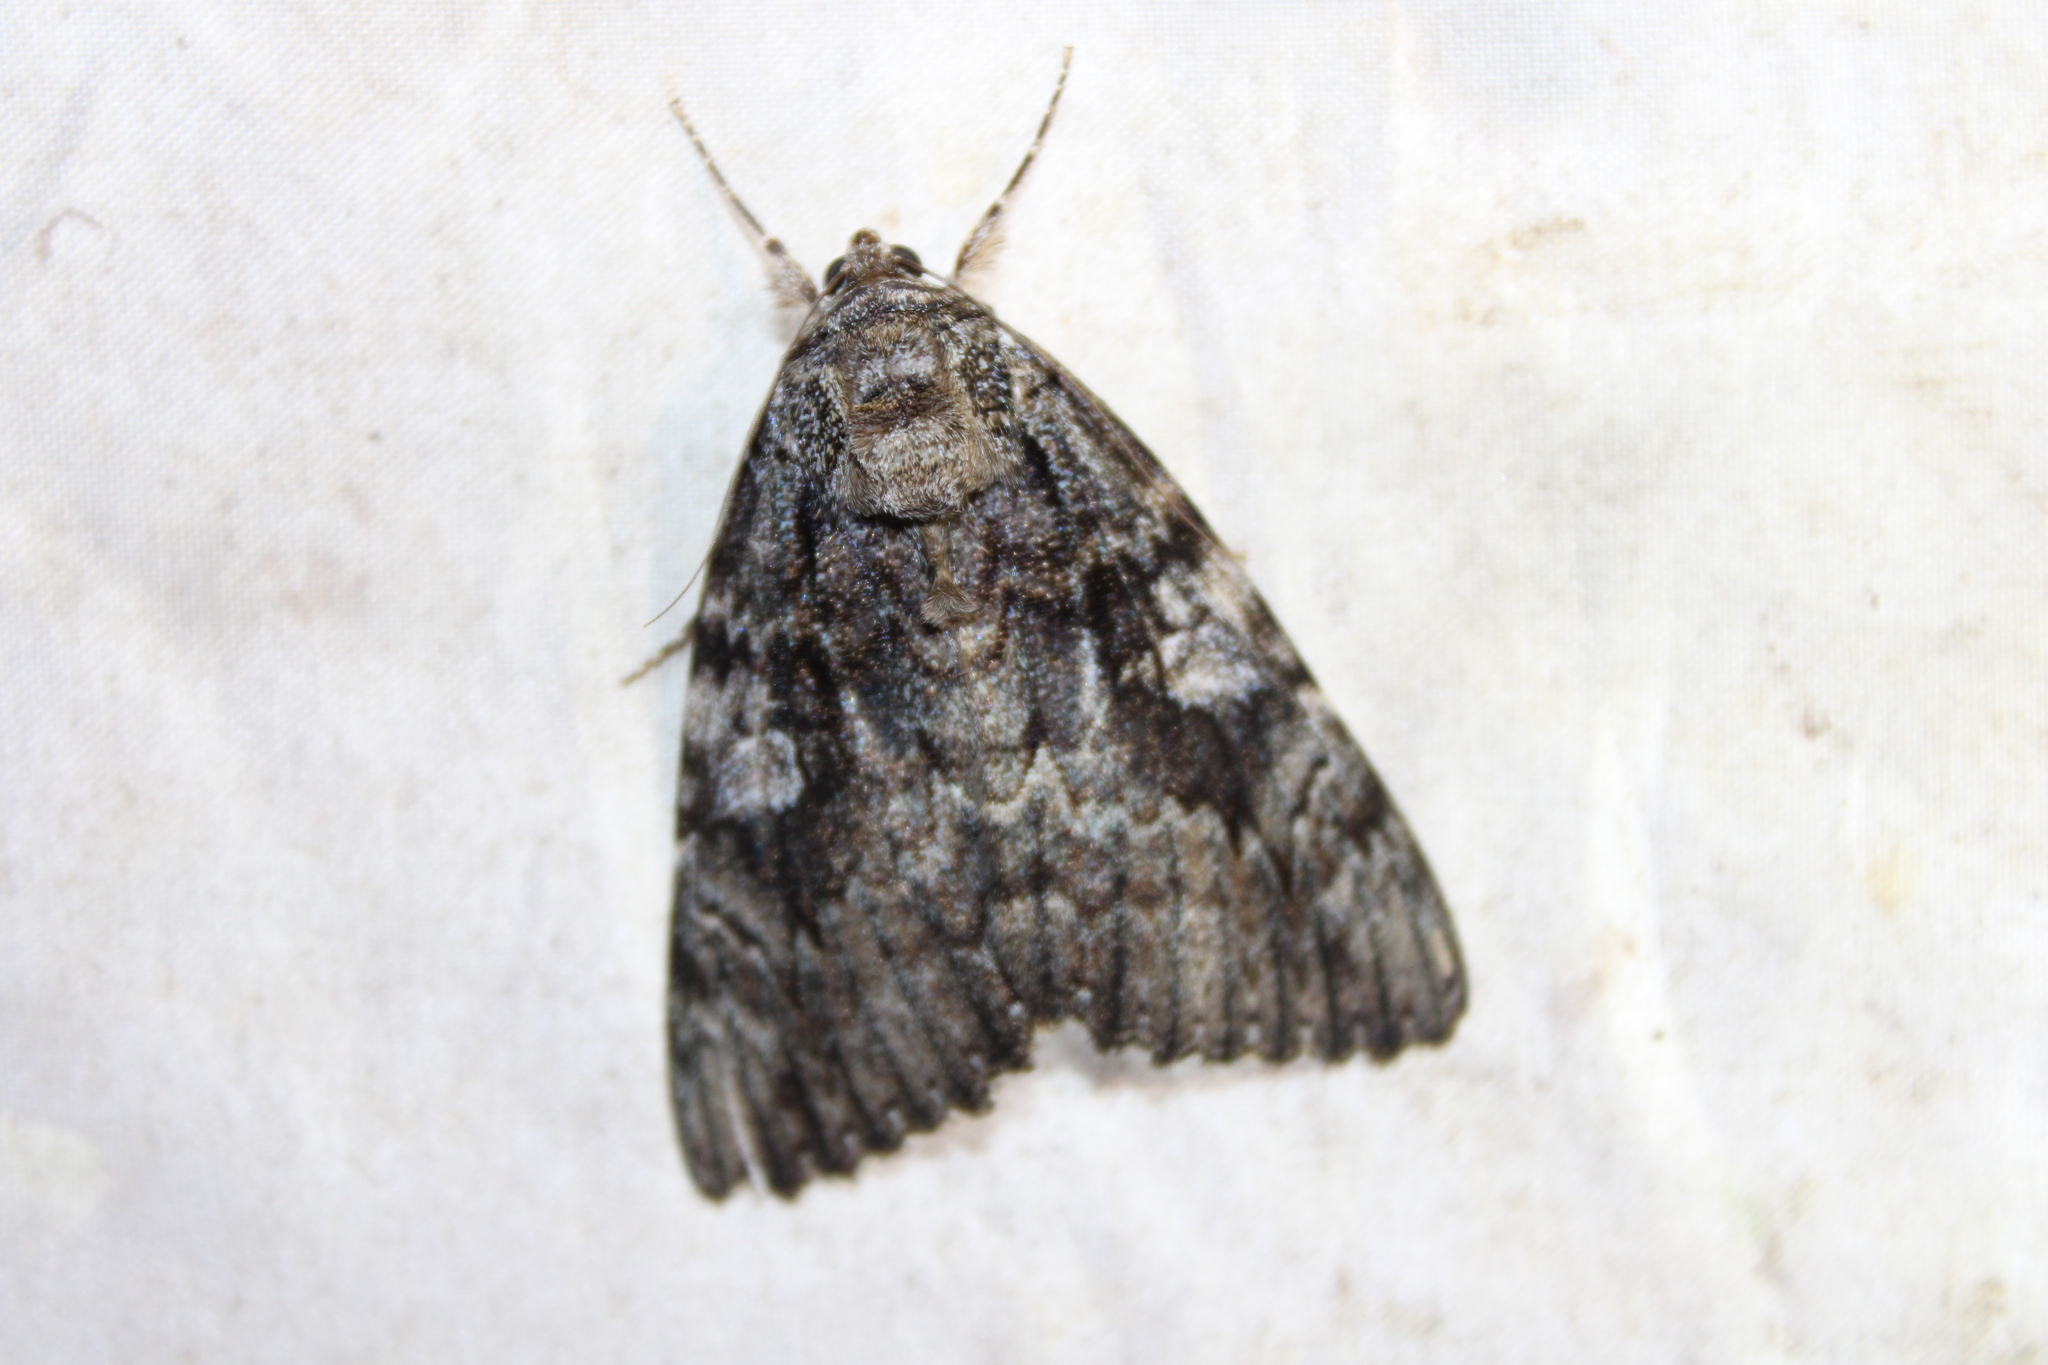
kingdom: Animalia
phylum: Arthropoda
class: Insecta
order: Lepidoptera
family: Erebidae
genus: Catocala
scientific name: Catocala ilia
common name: Ilia underwing
